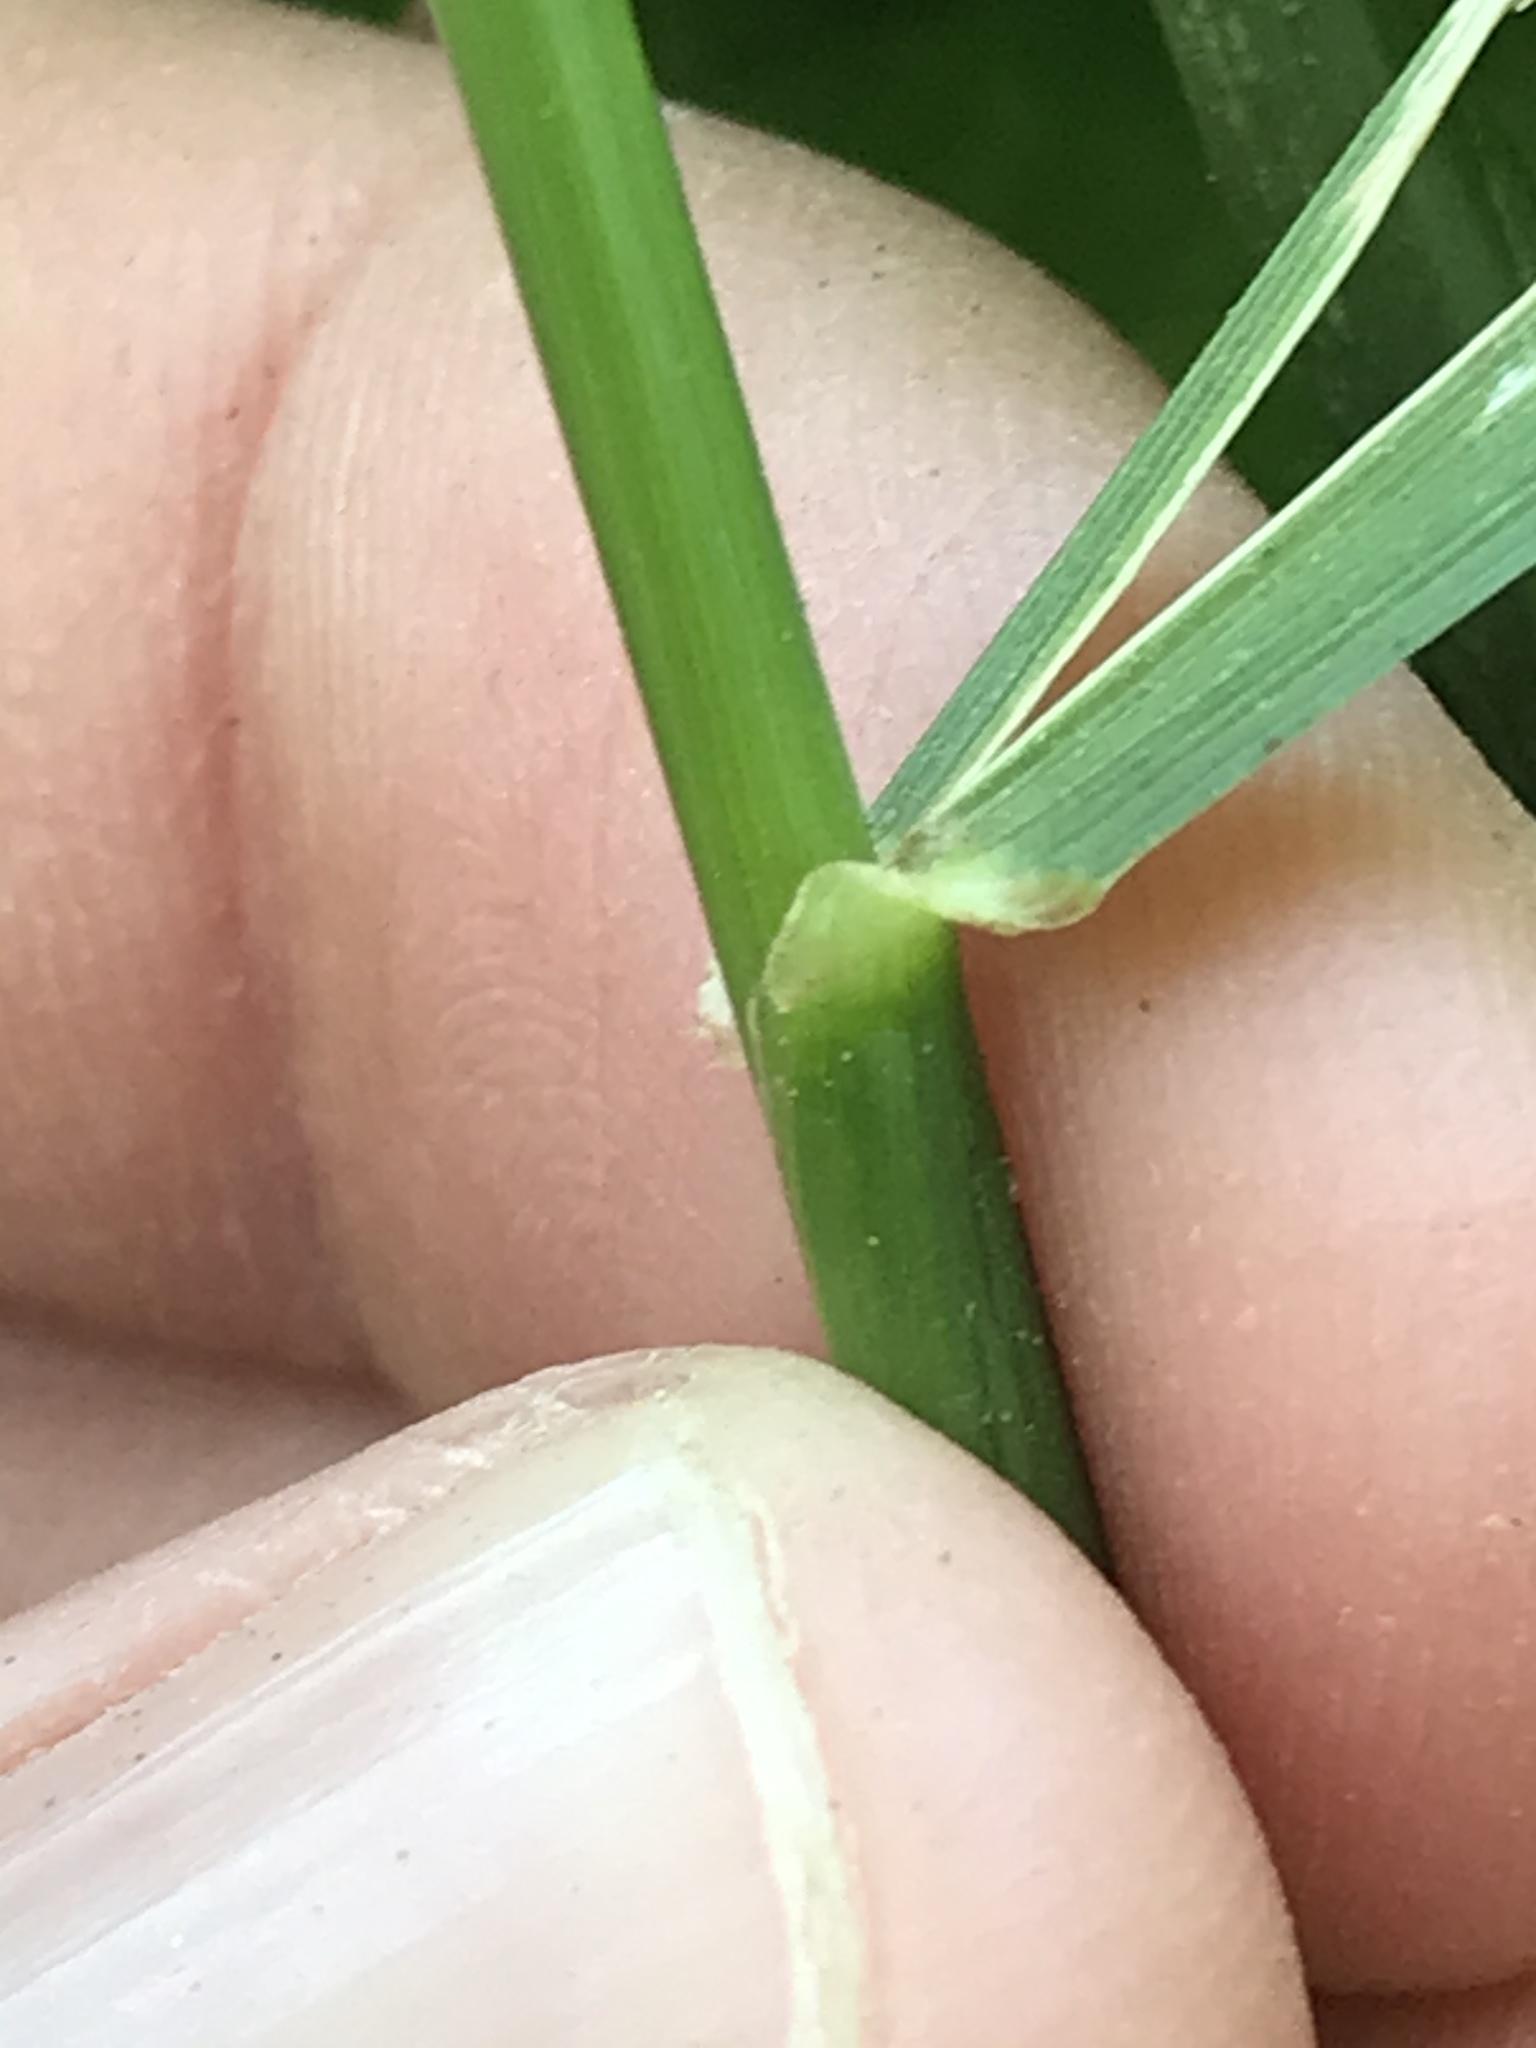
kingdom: Plantae
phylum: Tracheophyta
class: Liliopsida
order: Poales
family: Poaceae
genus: Lolium
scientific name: Lolium arundinaceum
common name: Reed fescue
